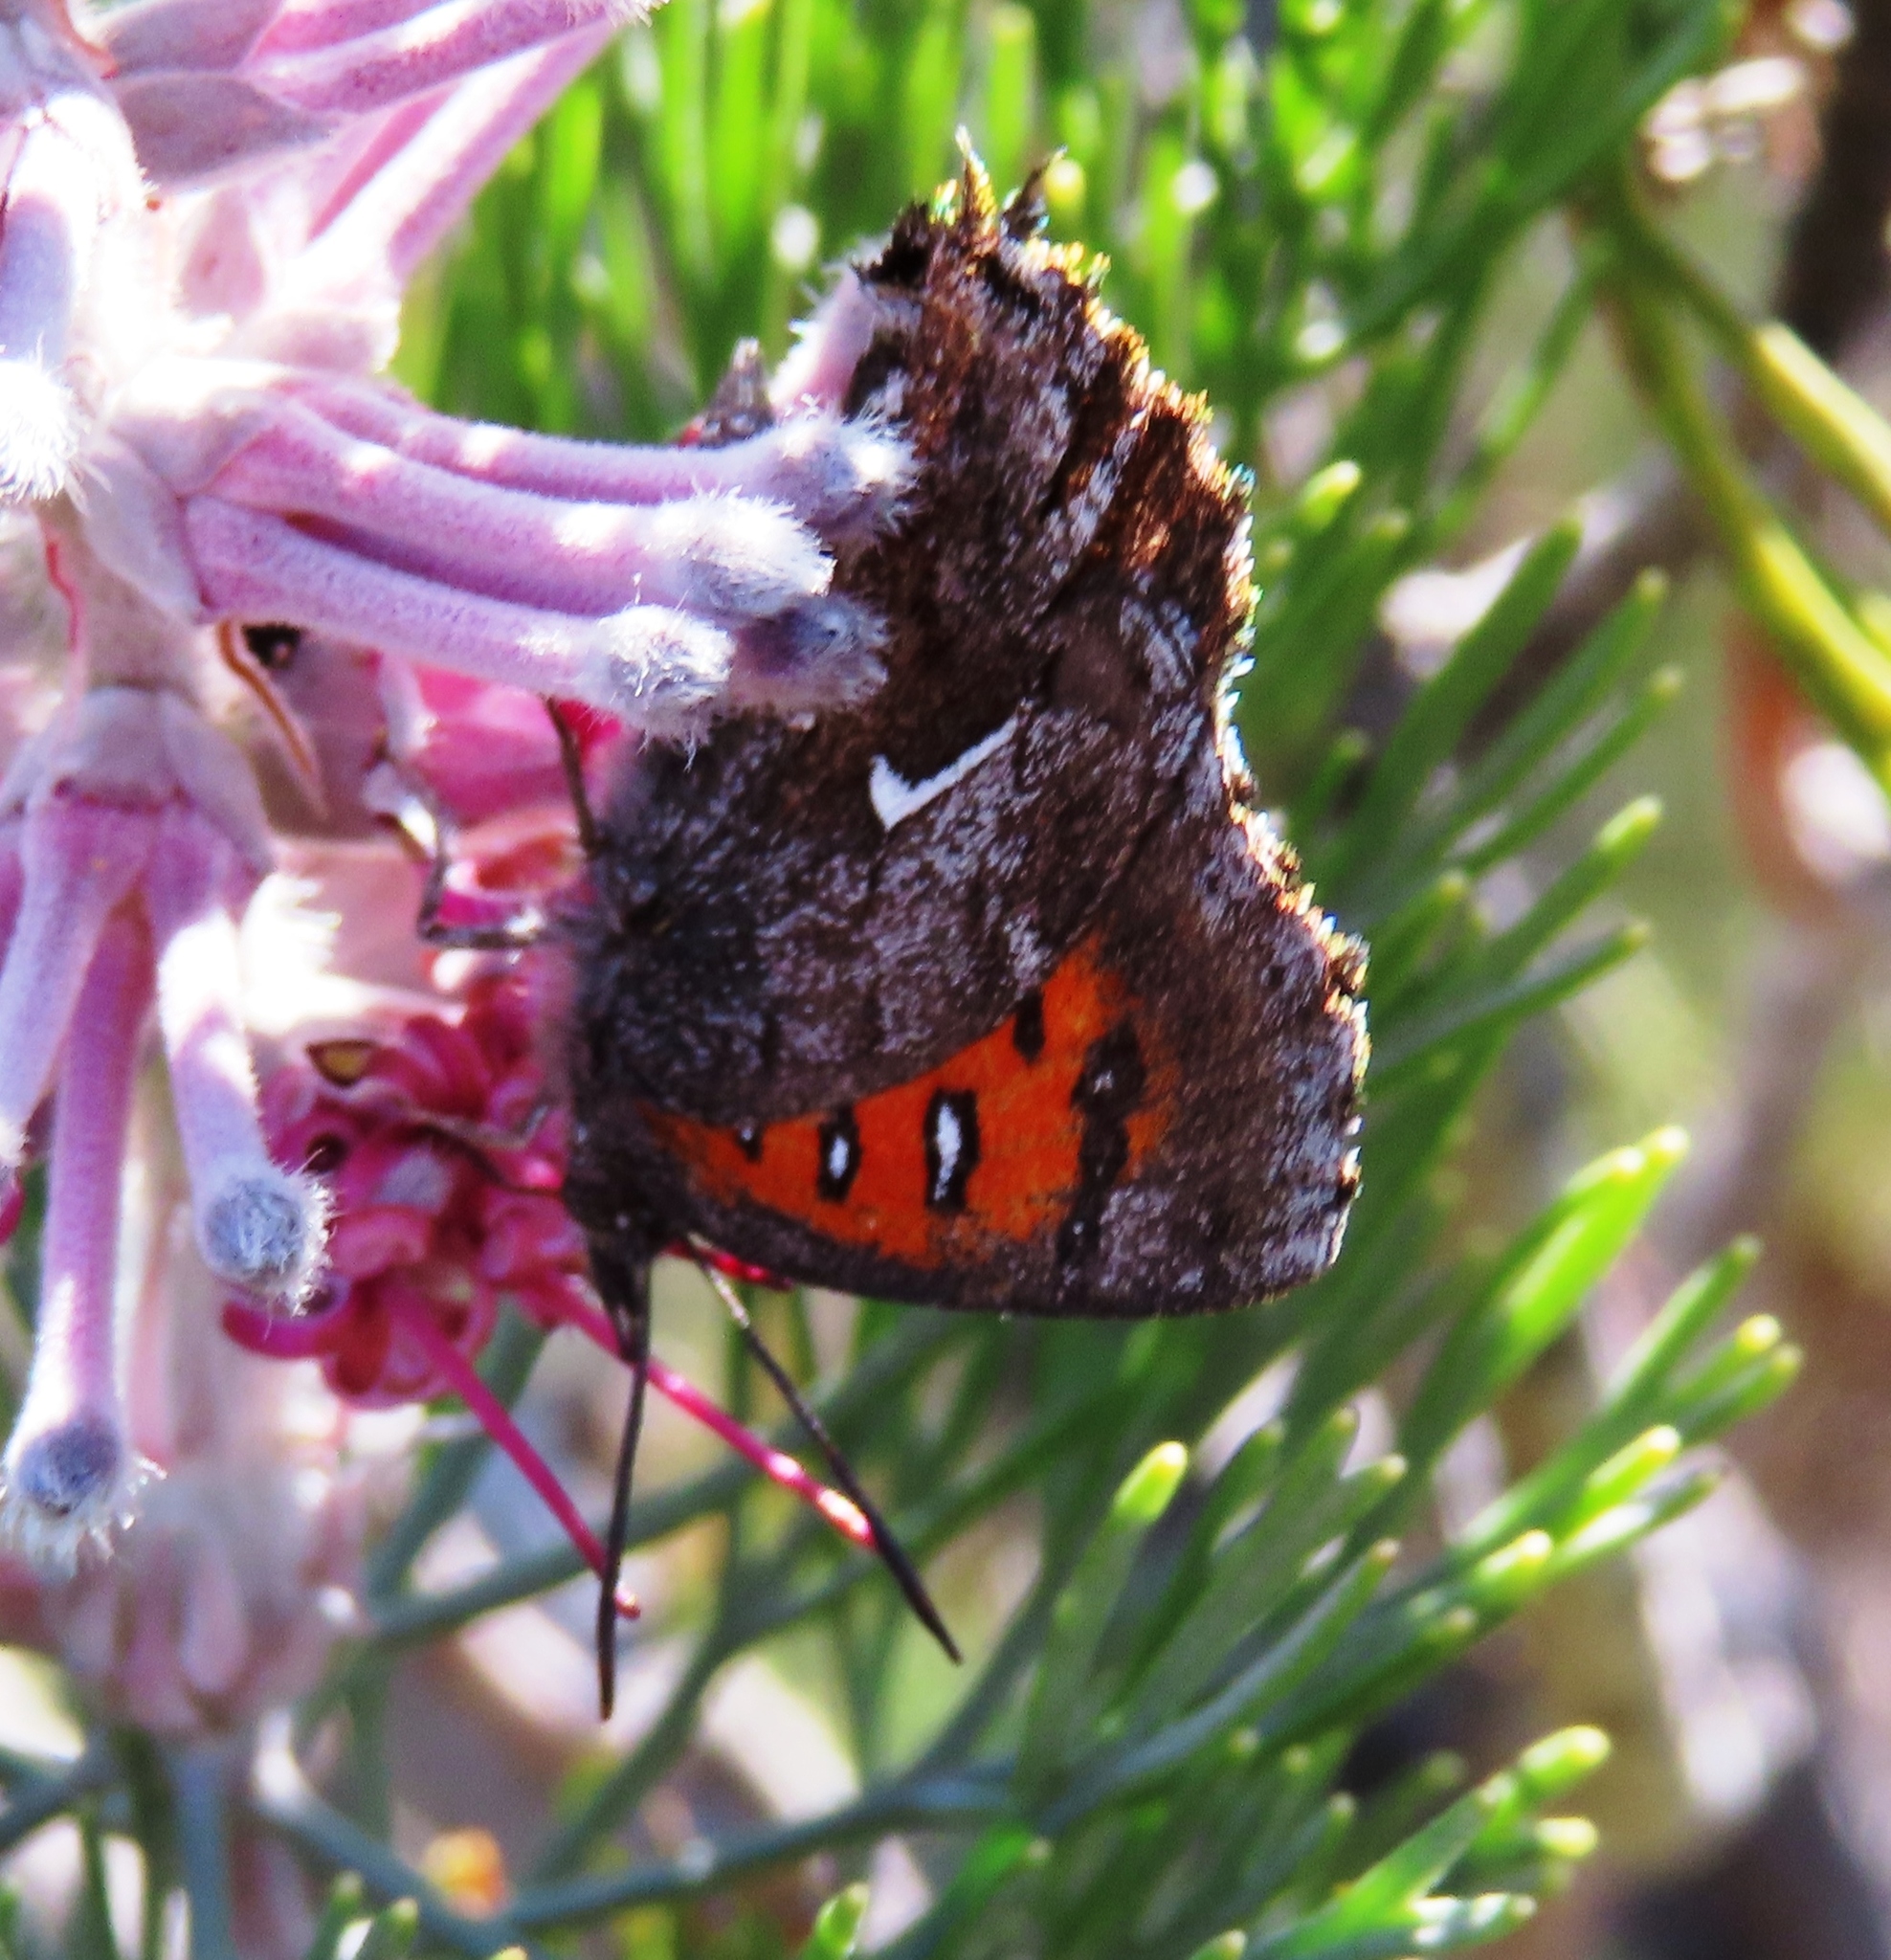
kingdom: Animalia
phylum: Arthropoda
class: Insecta
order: Lepidoptera
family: Lycaenidae
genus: Phasis
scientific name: Phasis clavum
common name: Namaqua arrowhead
